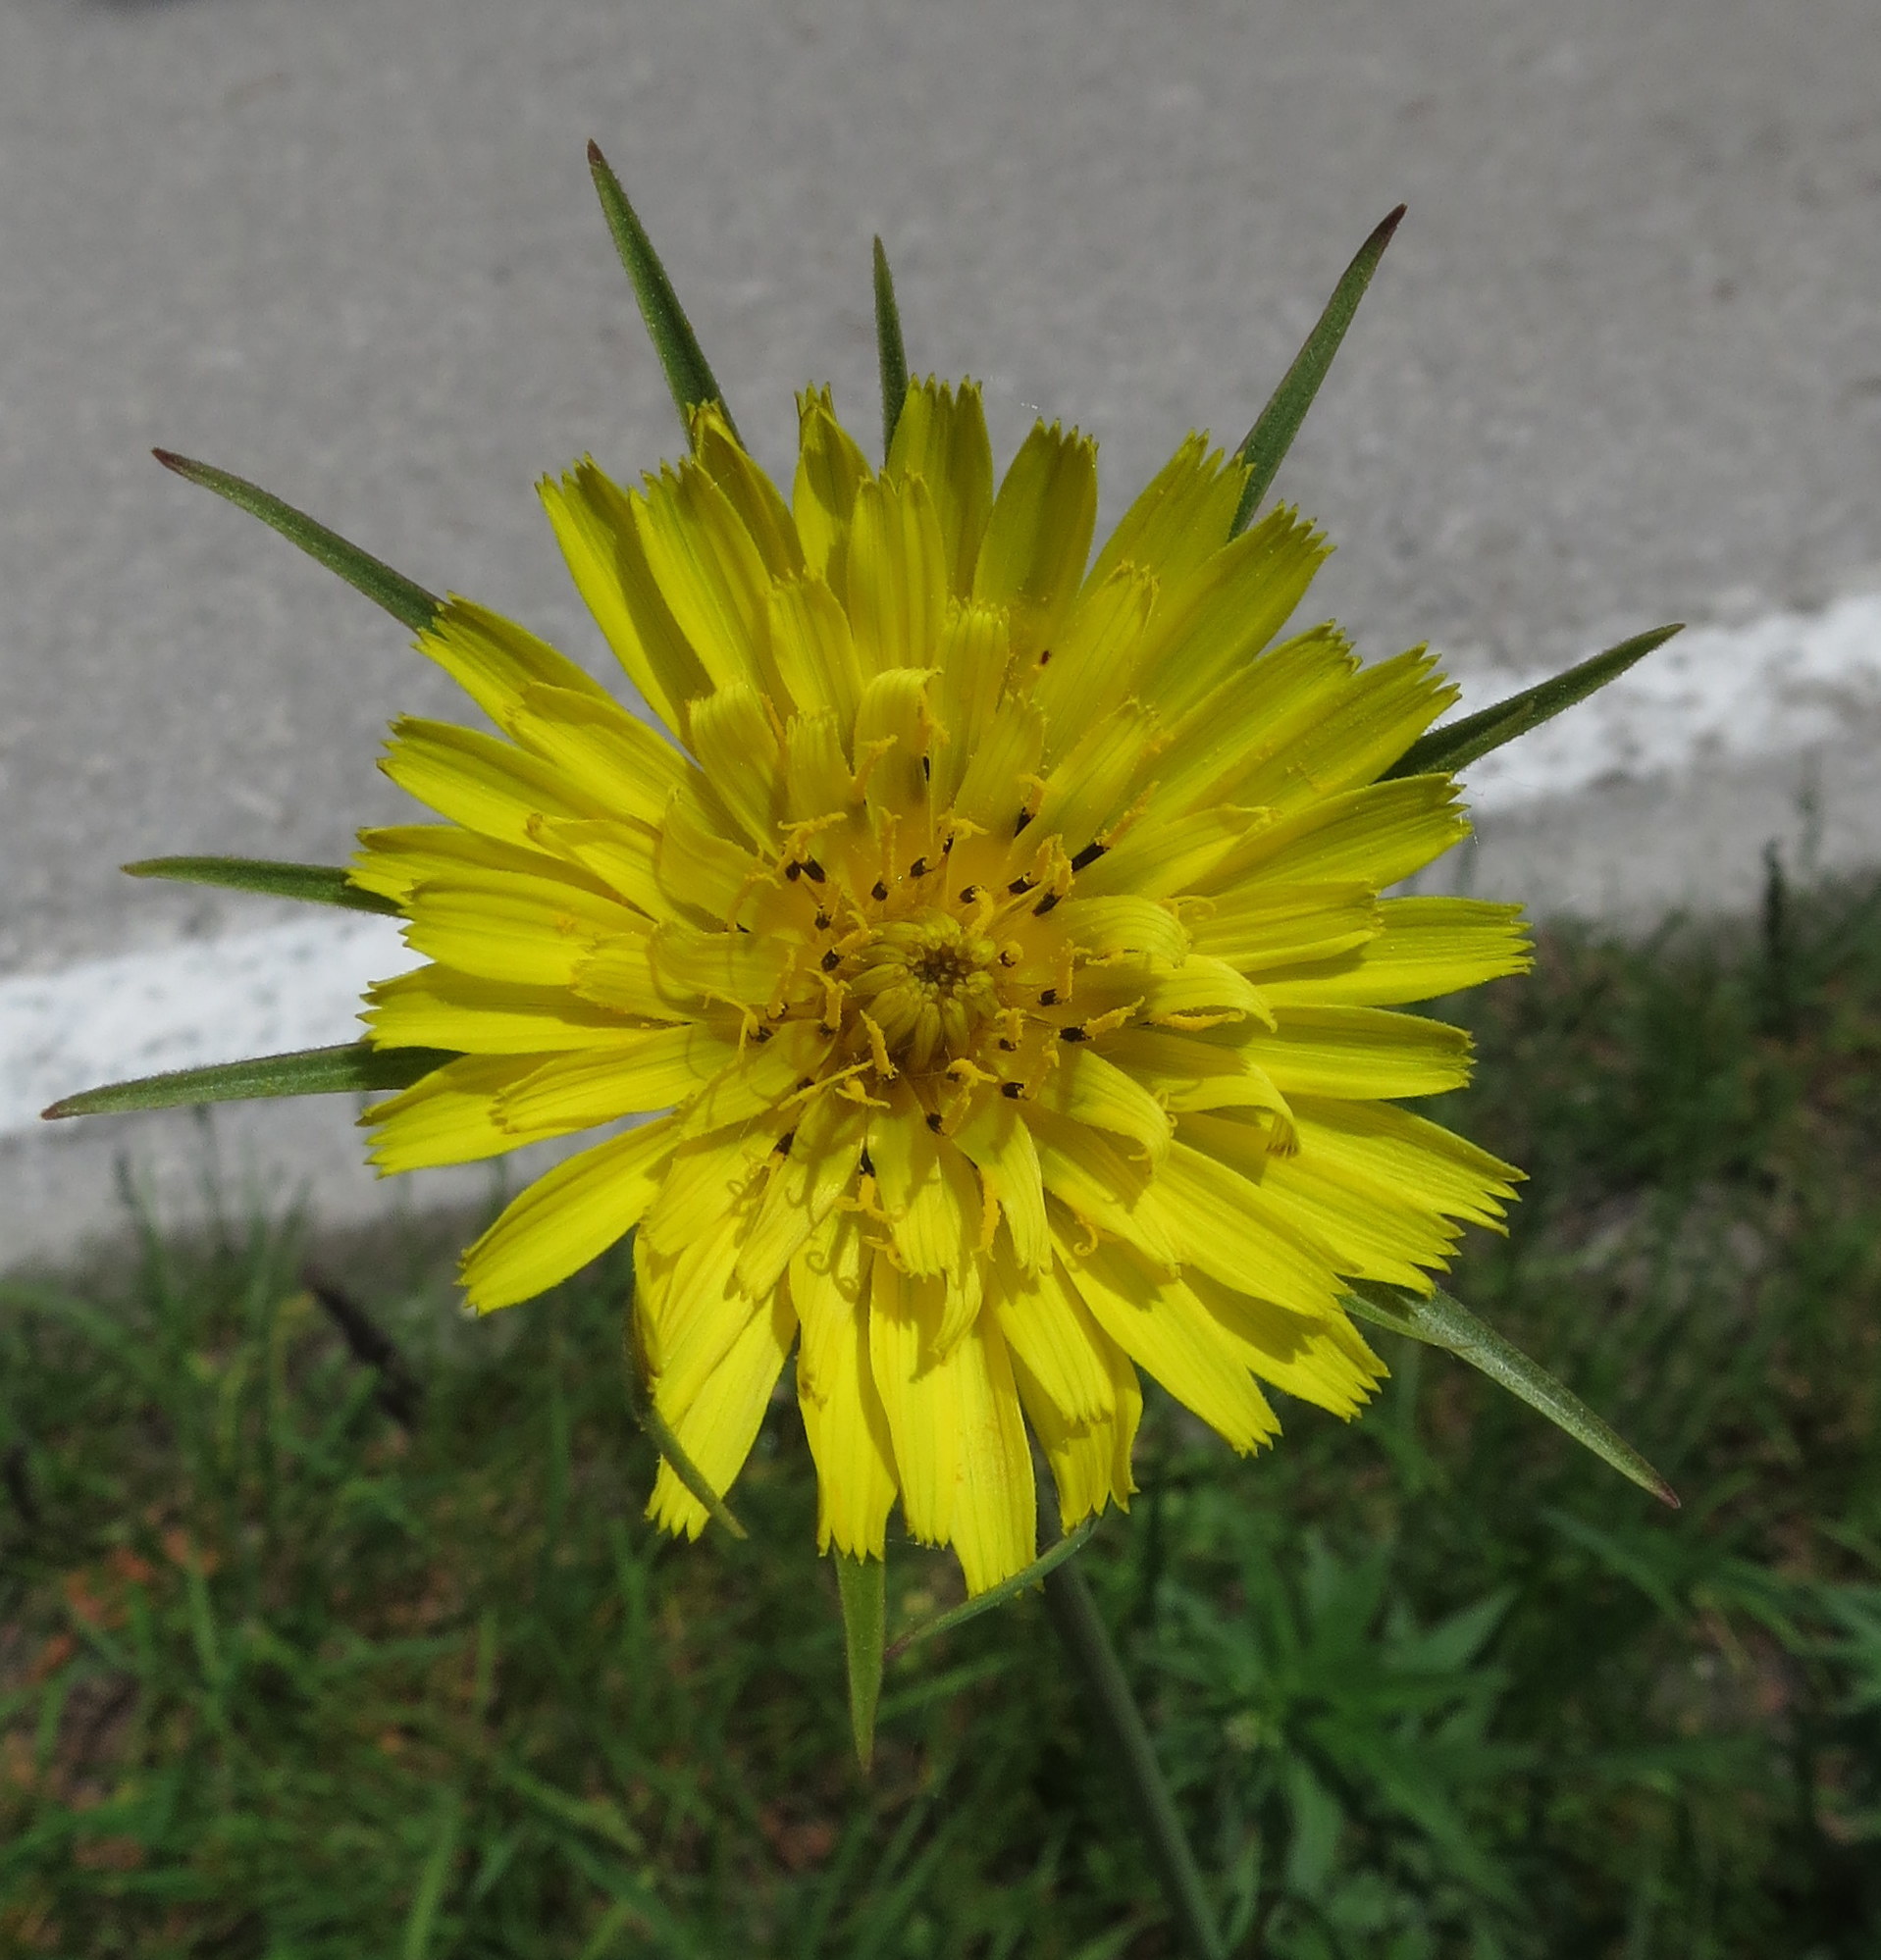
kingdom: Plantae
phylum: Tracheophyta
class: Magnoliopsida
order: Asterales
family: Asteraceae
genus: Tragopogon
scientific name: Tragopogon dubius
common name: Yellow salsify
